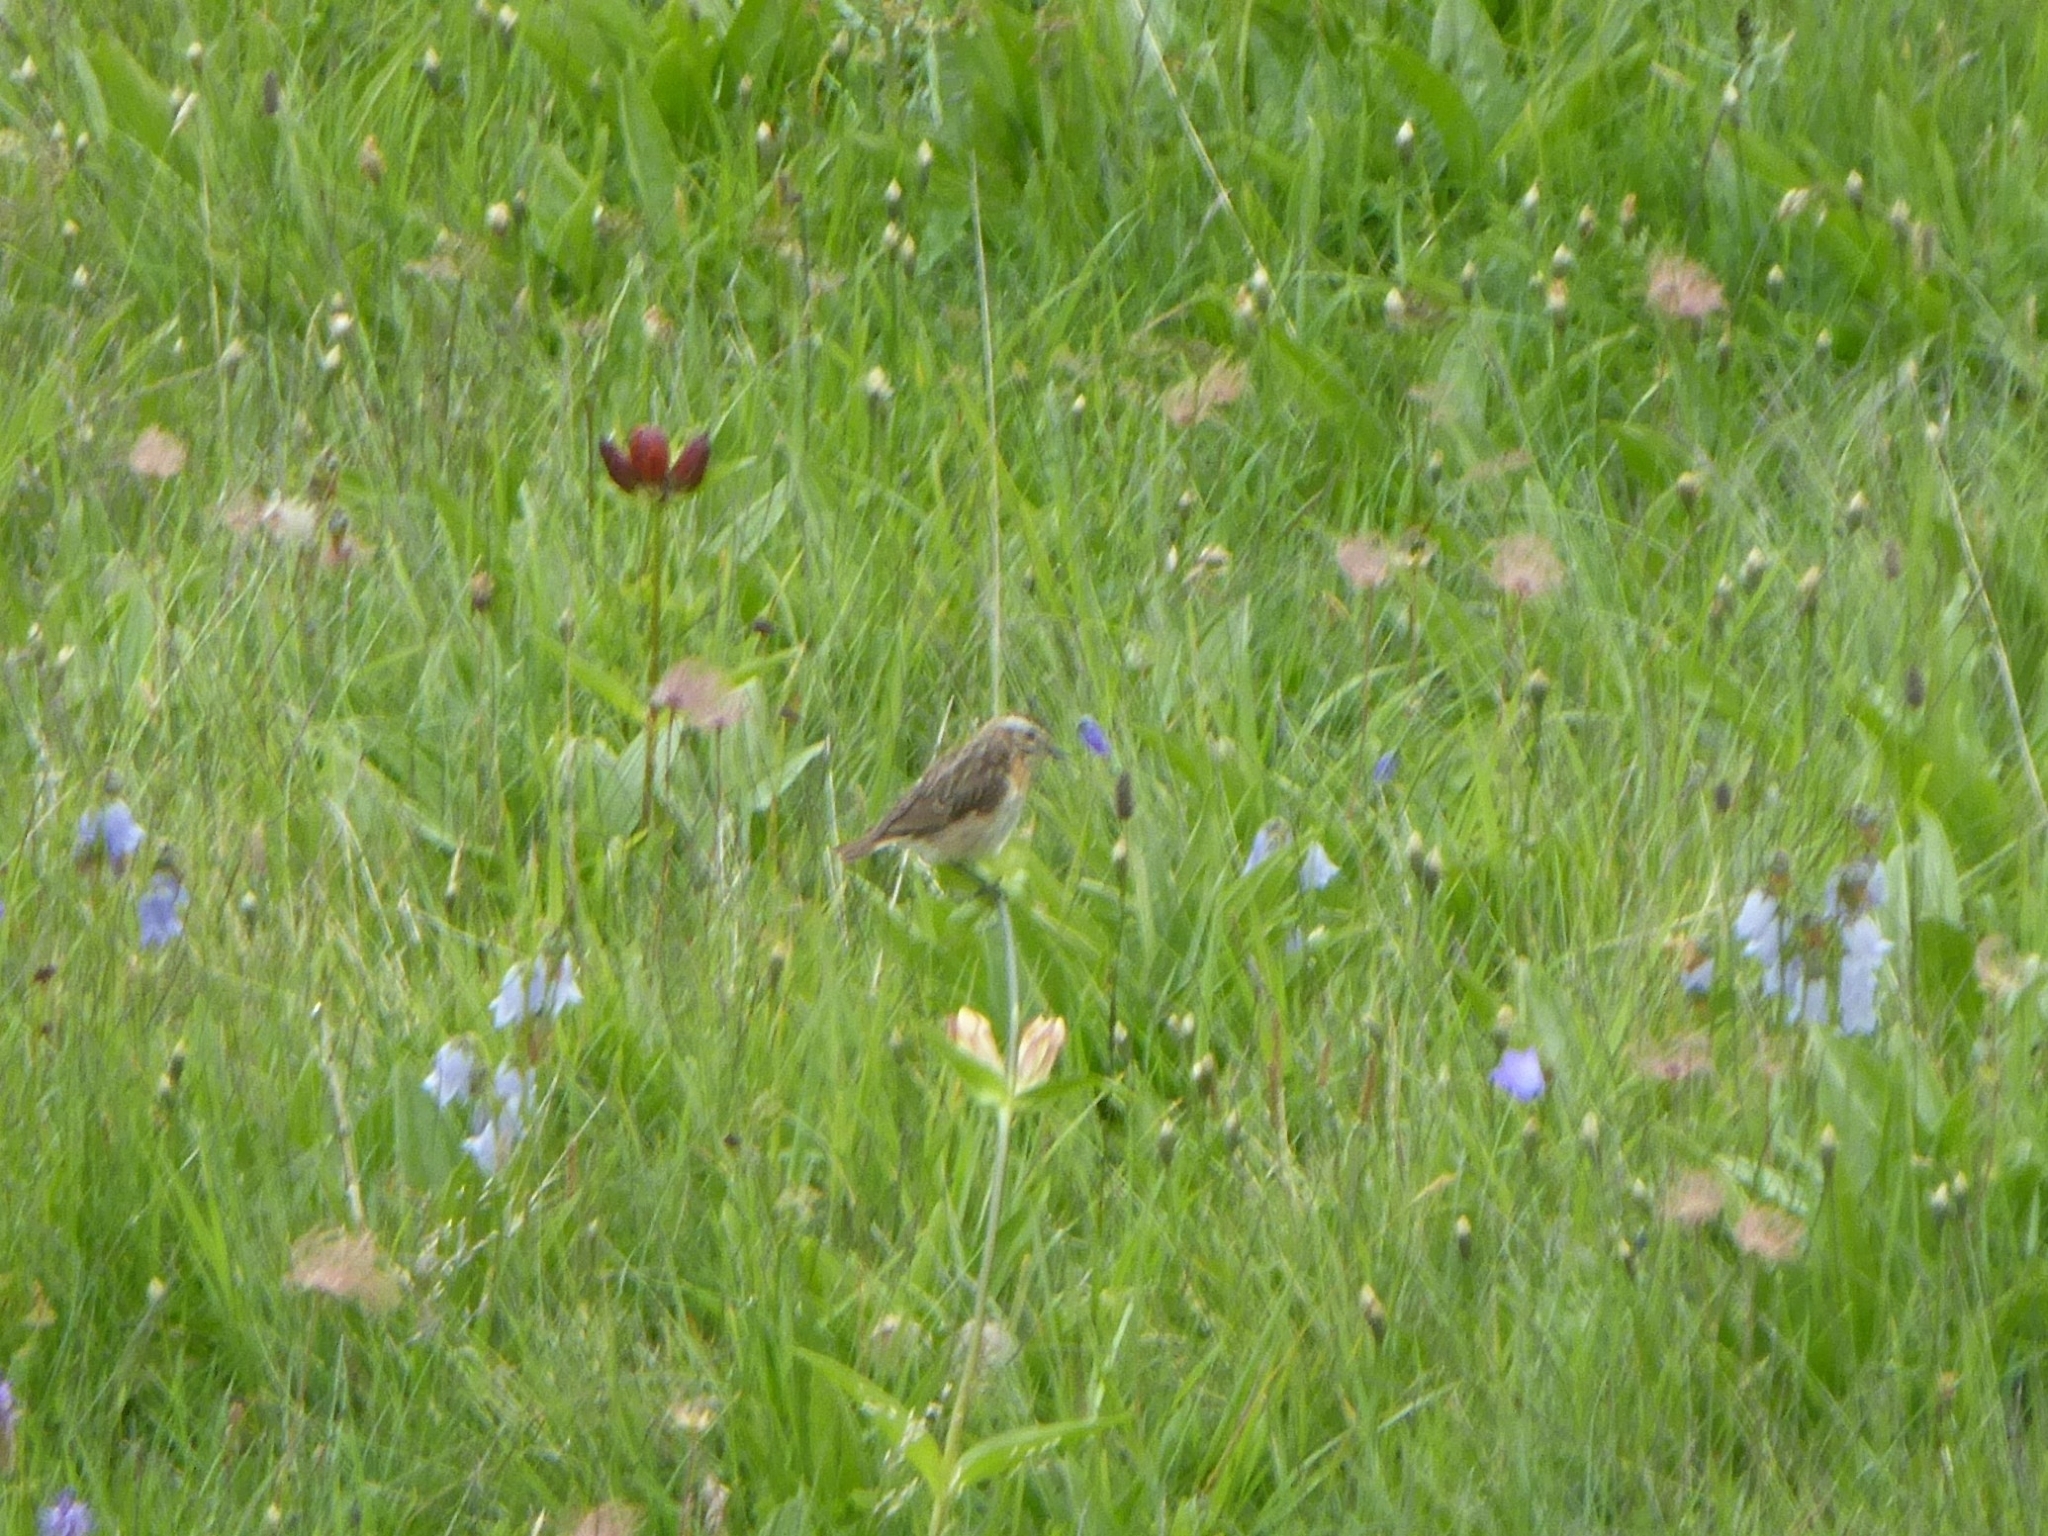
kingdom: Animalia
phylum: Chordata
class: Aves
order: Passeriformes
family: Muscicapidae
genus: Saxicola
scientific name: Saxicola rubetra
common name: Whinchat
